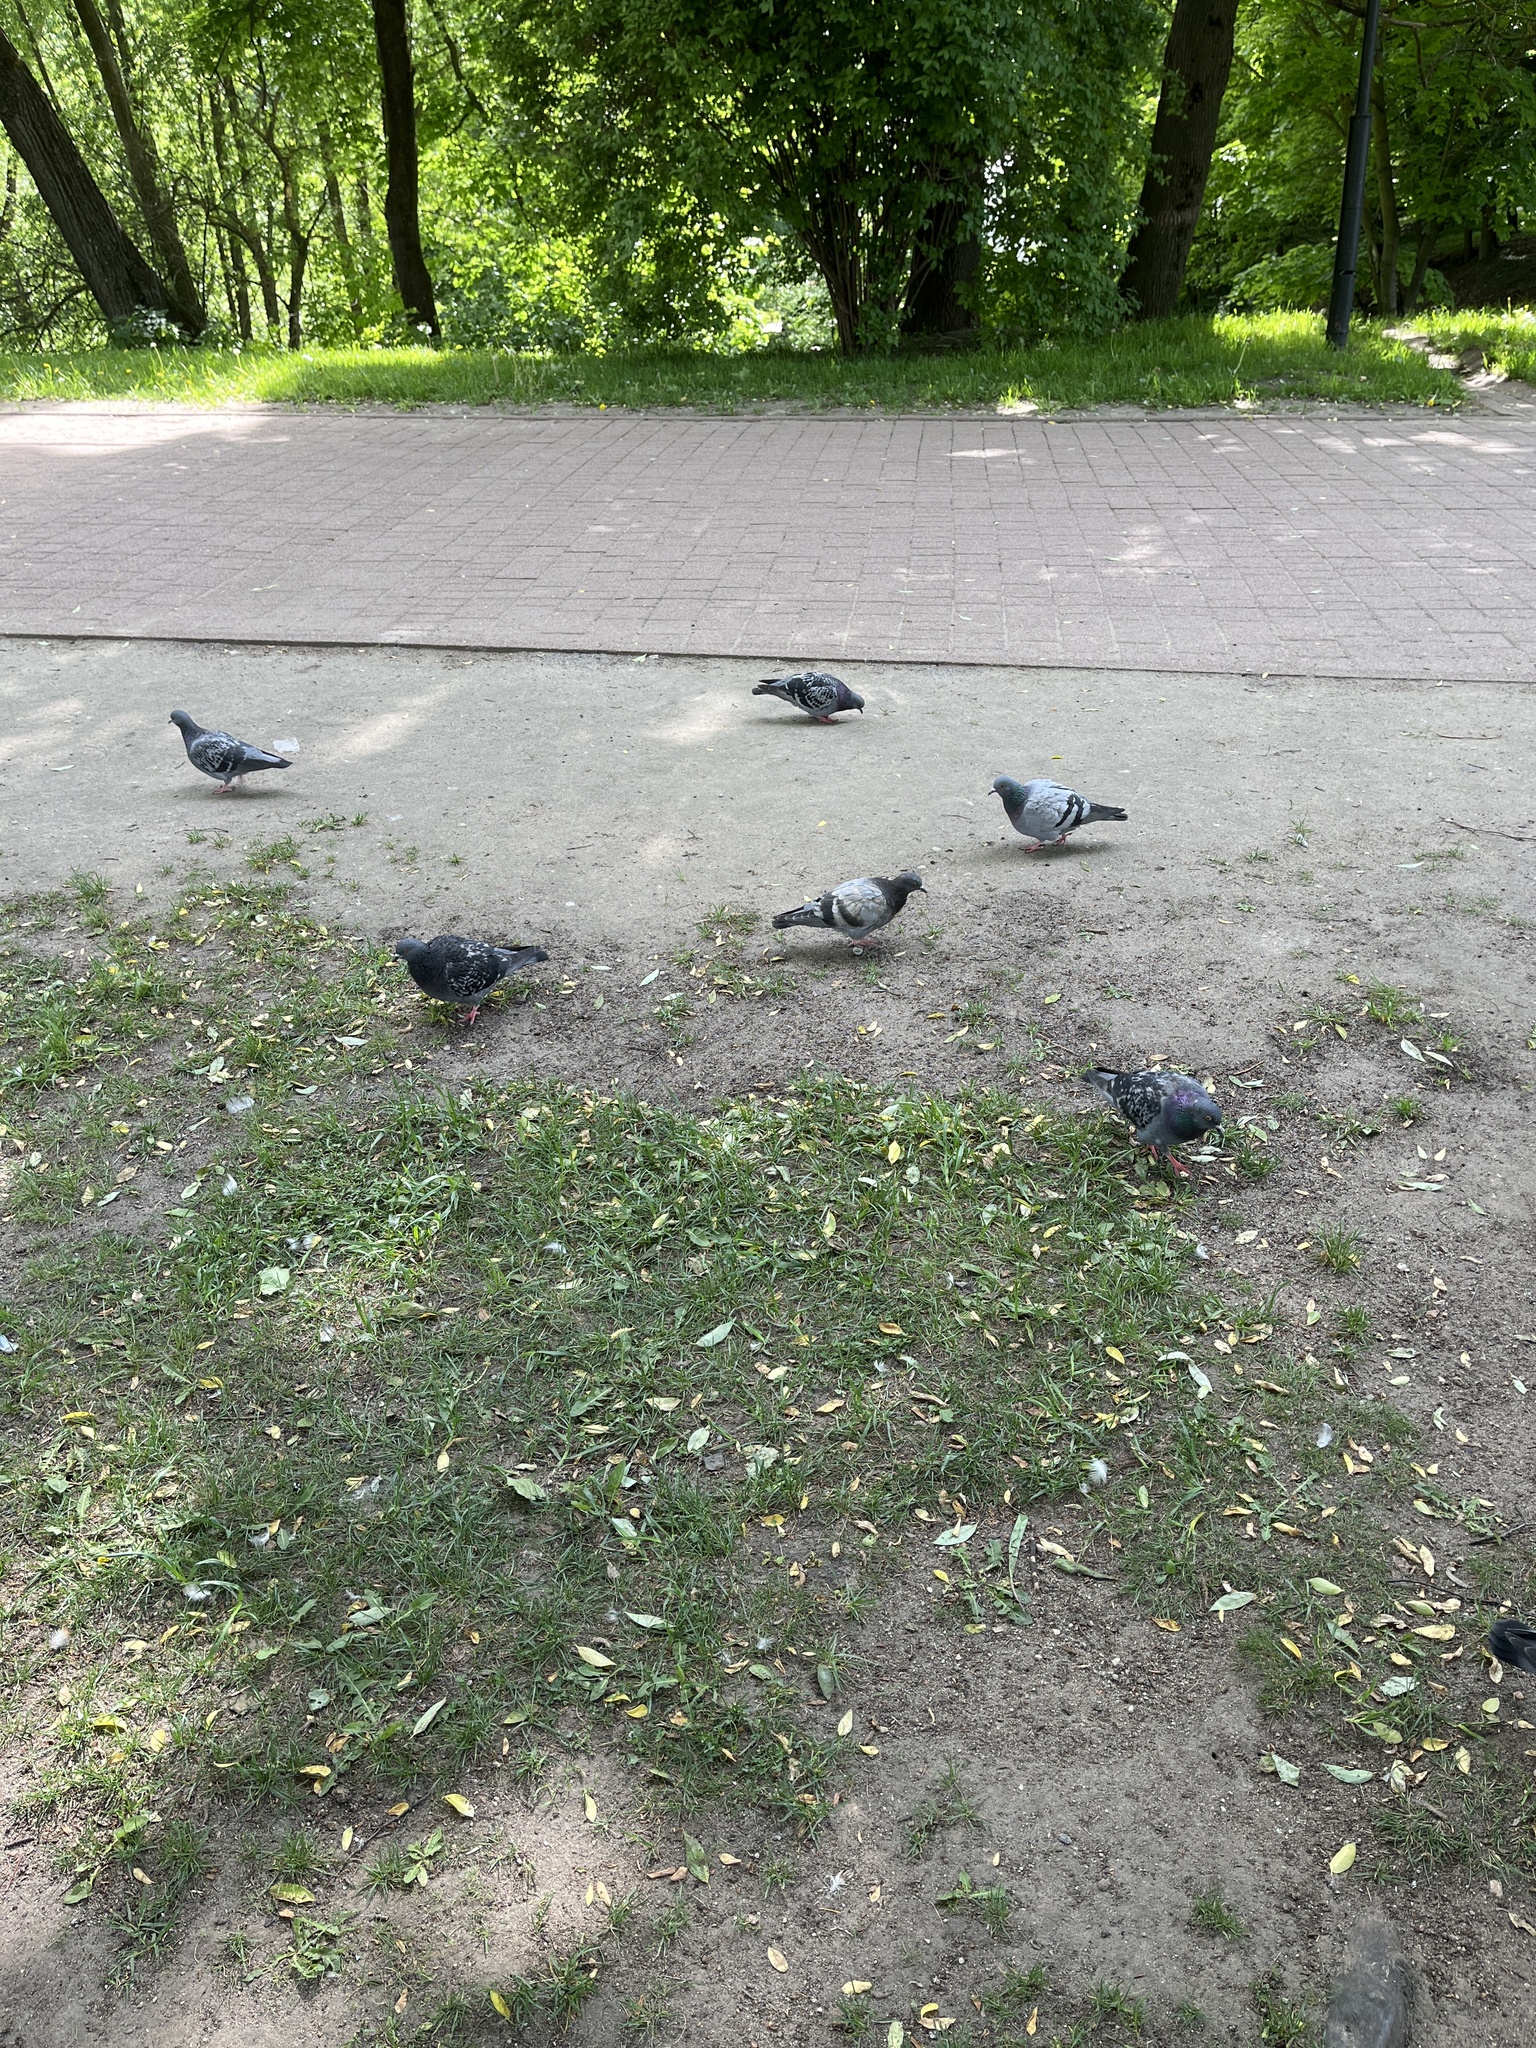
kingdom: Animalia
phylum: Chordata
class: Aves
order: Columbiformes
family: Columbidae
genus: Columba
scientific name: Columba livia
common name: Rock pigeon
